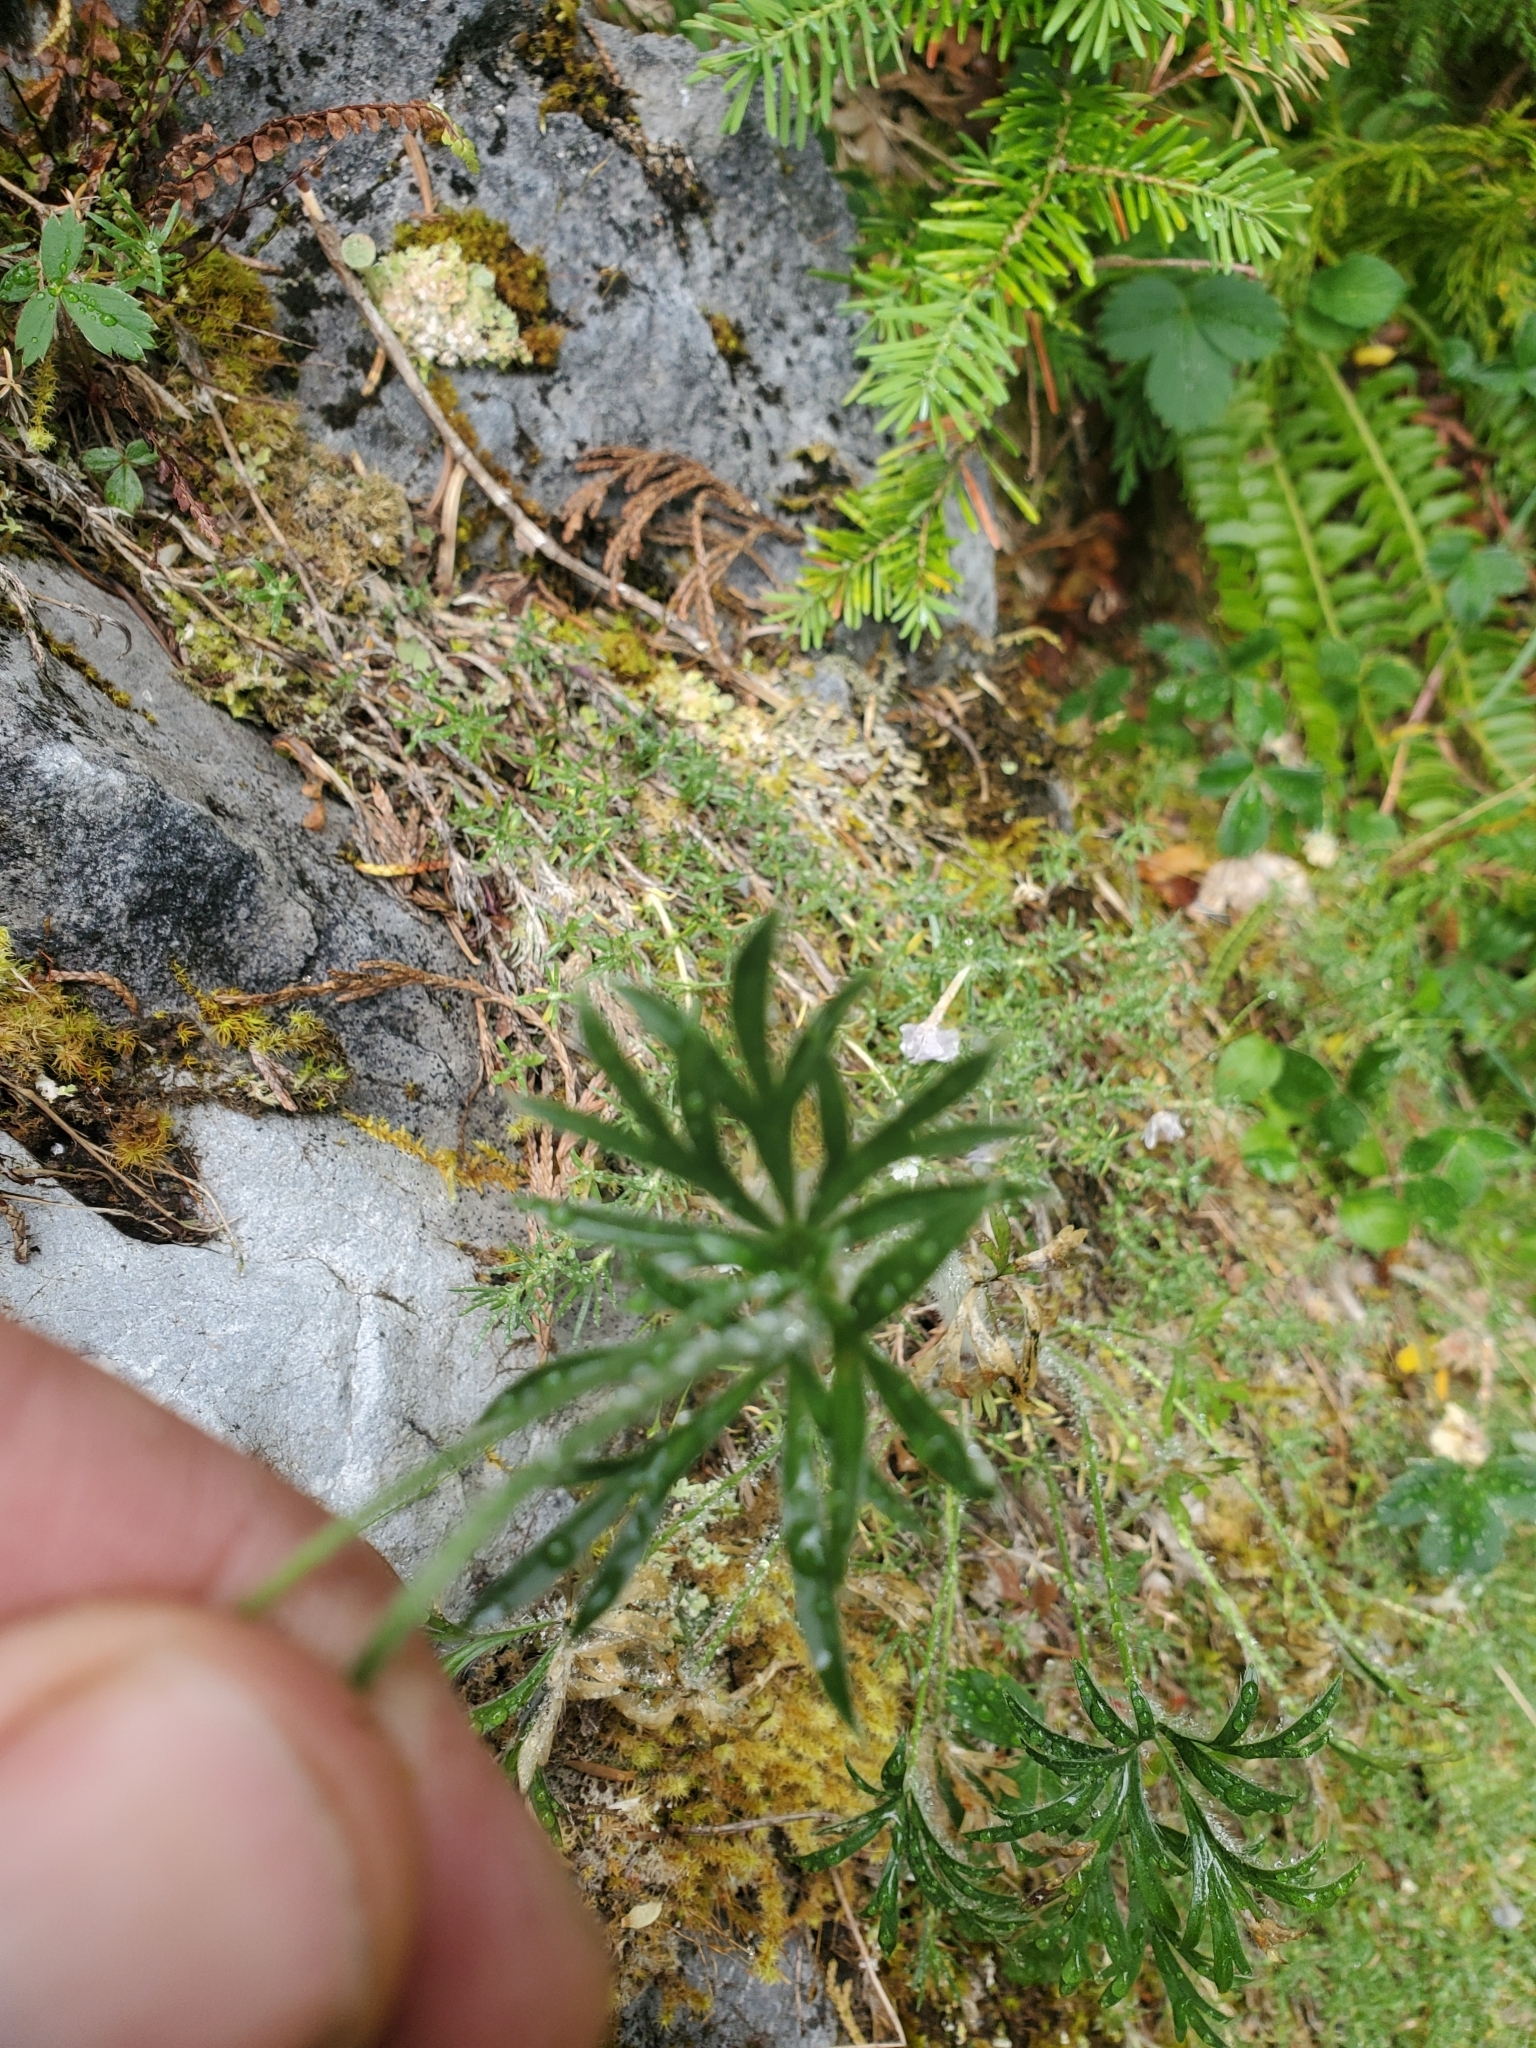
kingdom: Plantae
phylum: Tracheophyta
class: Magnoliopsida
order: Ranunculales
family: Ranunculaceae
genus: Anemone
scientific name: Anemone multifida
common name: Bird's-foot anemone
